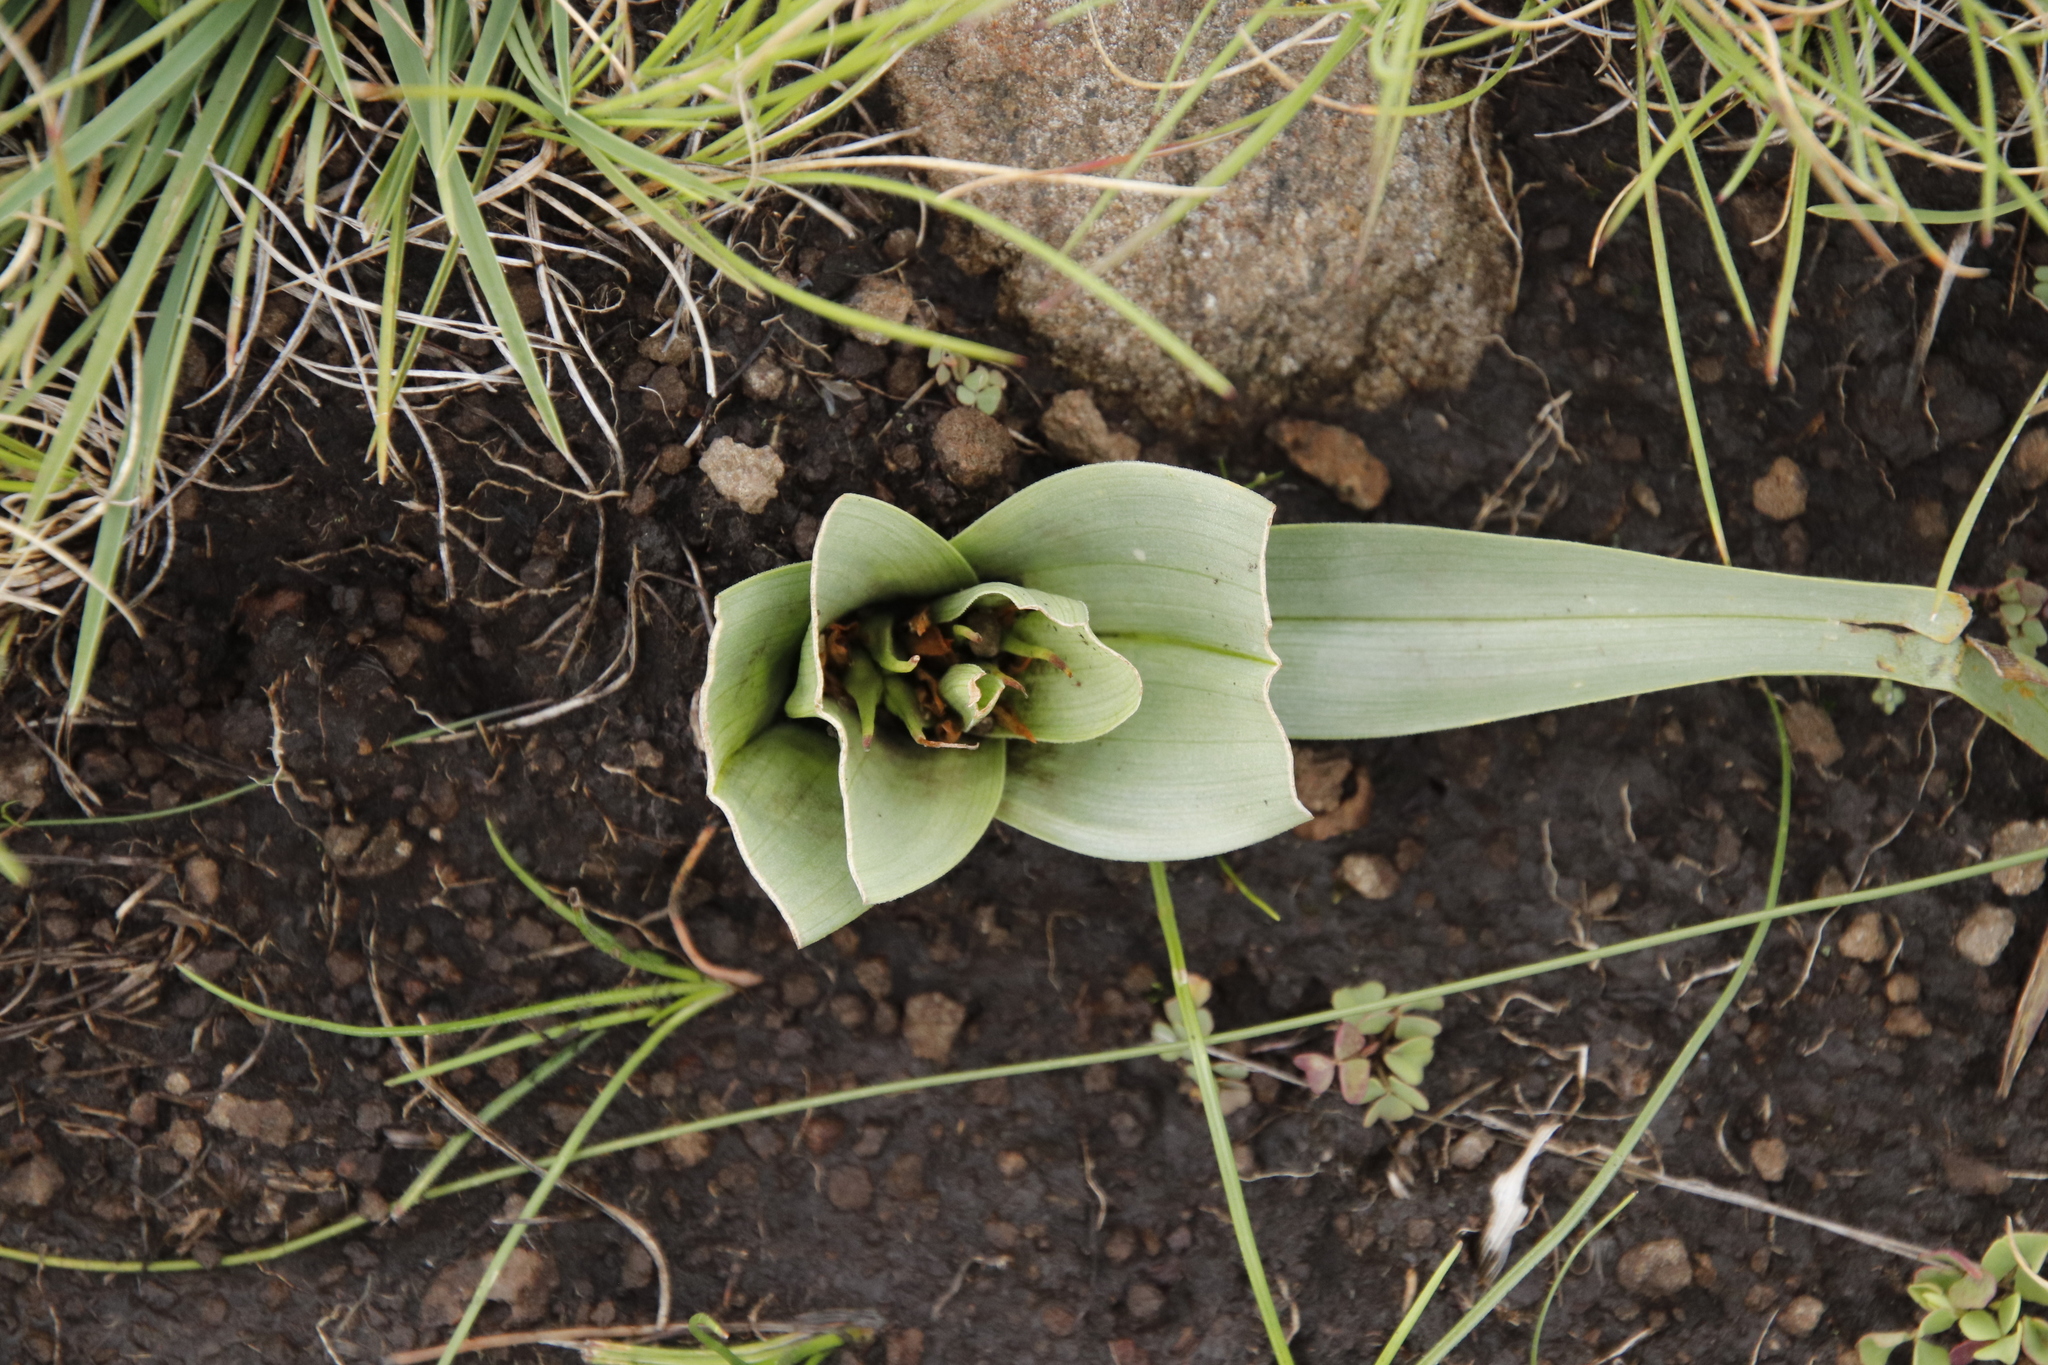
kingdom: Plantae
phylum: Tracheophyta
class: Liliopsida
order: Liliales
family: Colchicaceae
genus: Colchicum
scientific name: Colchicum longipes
